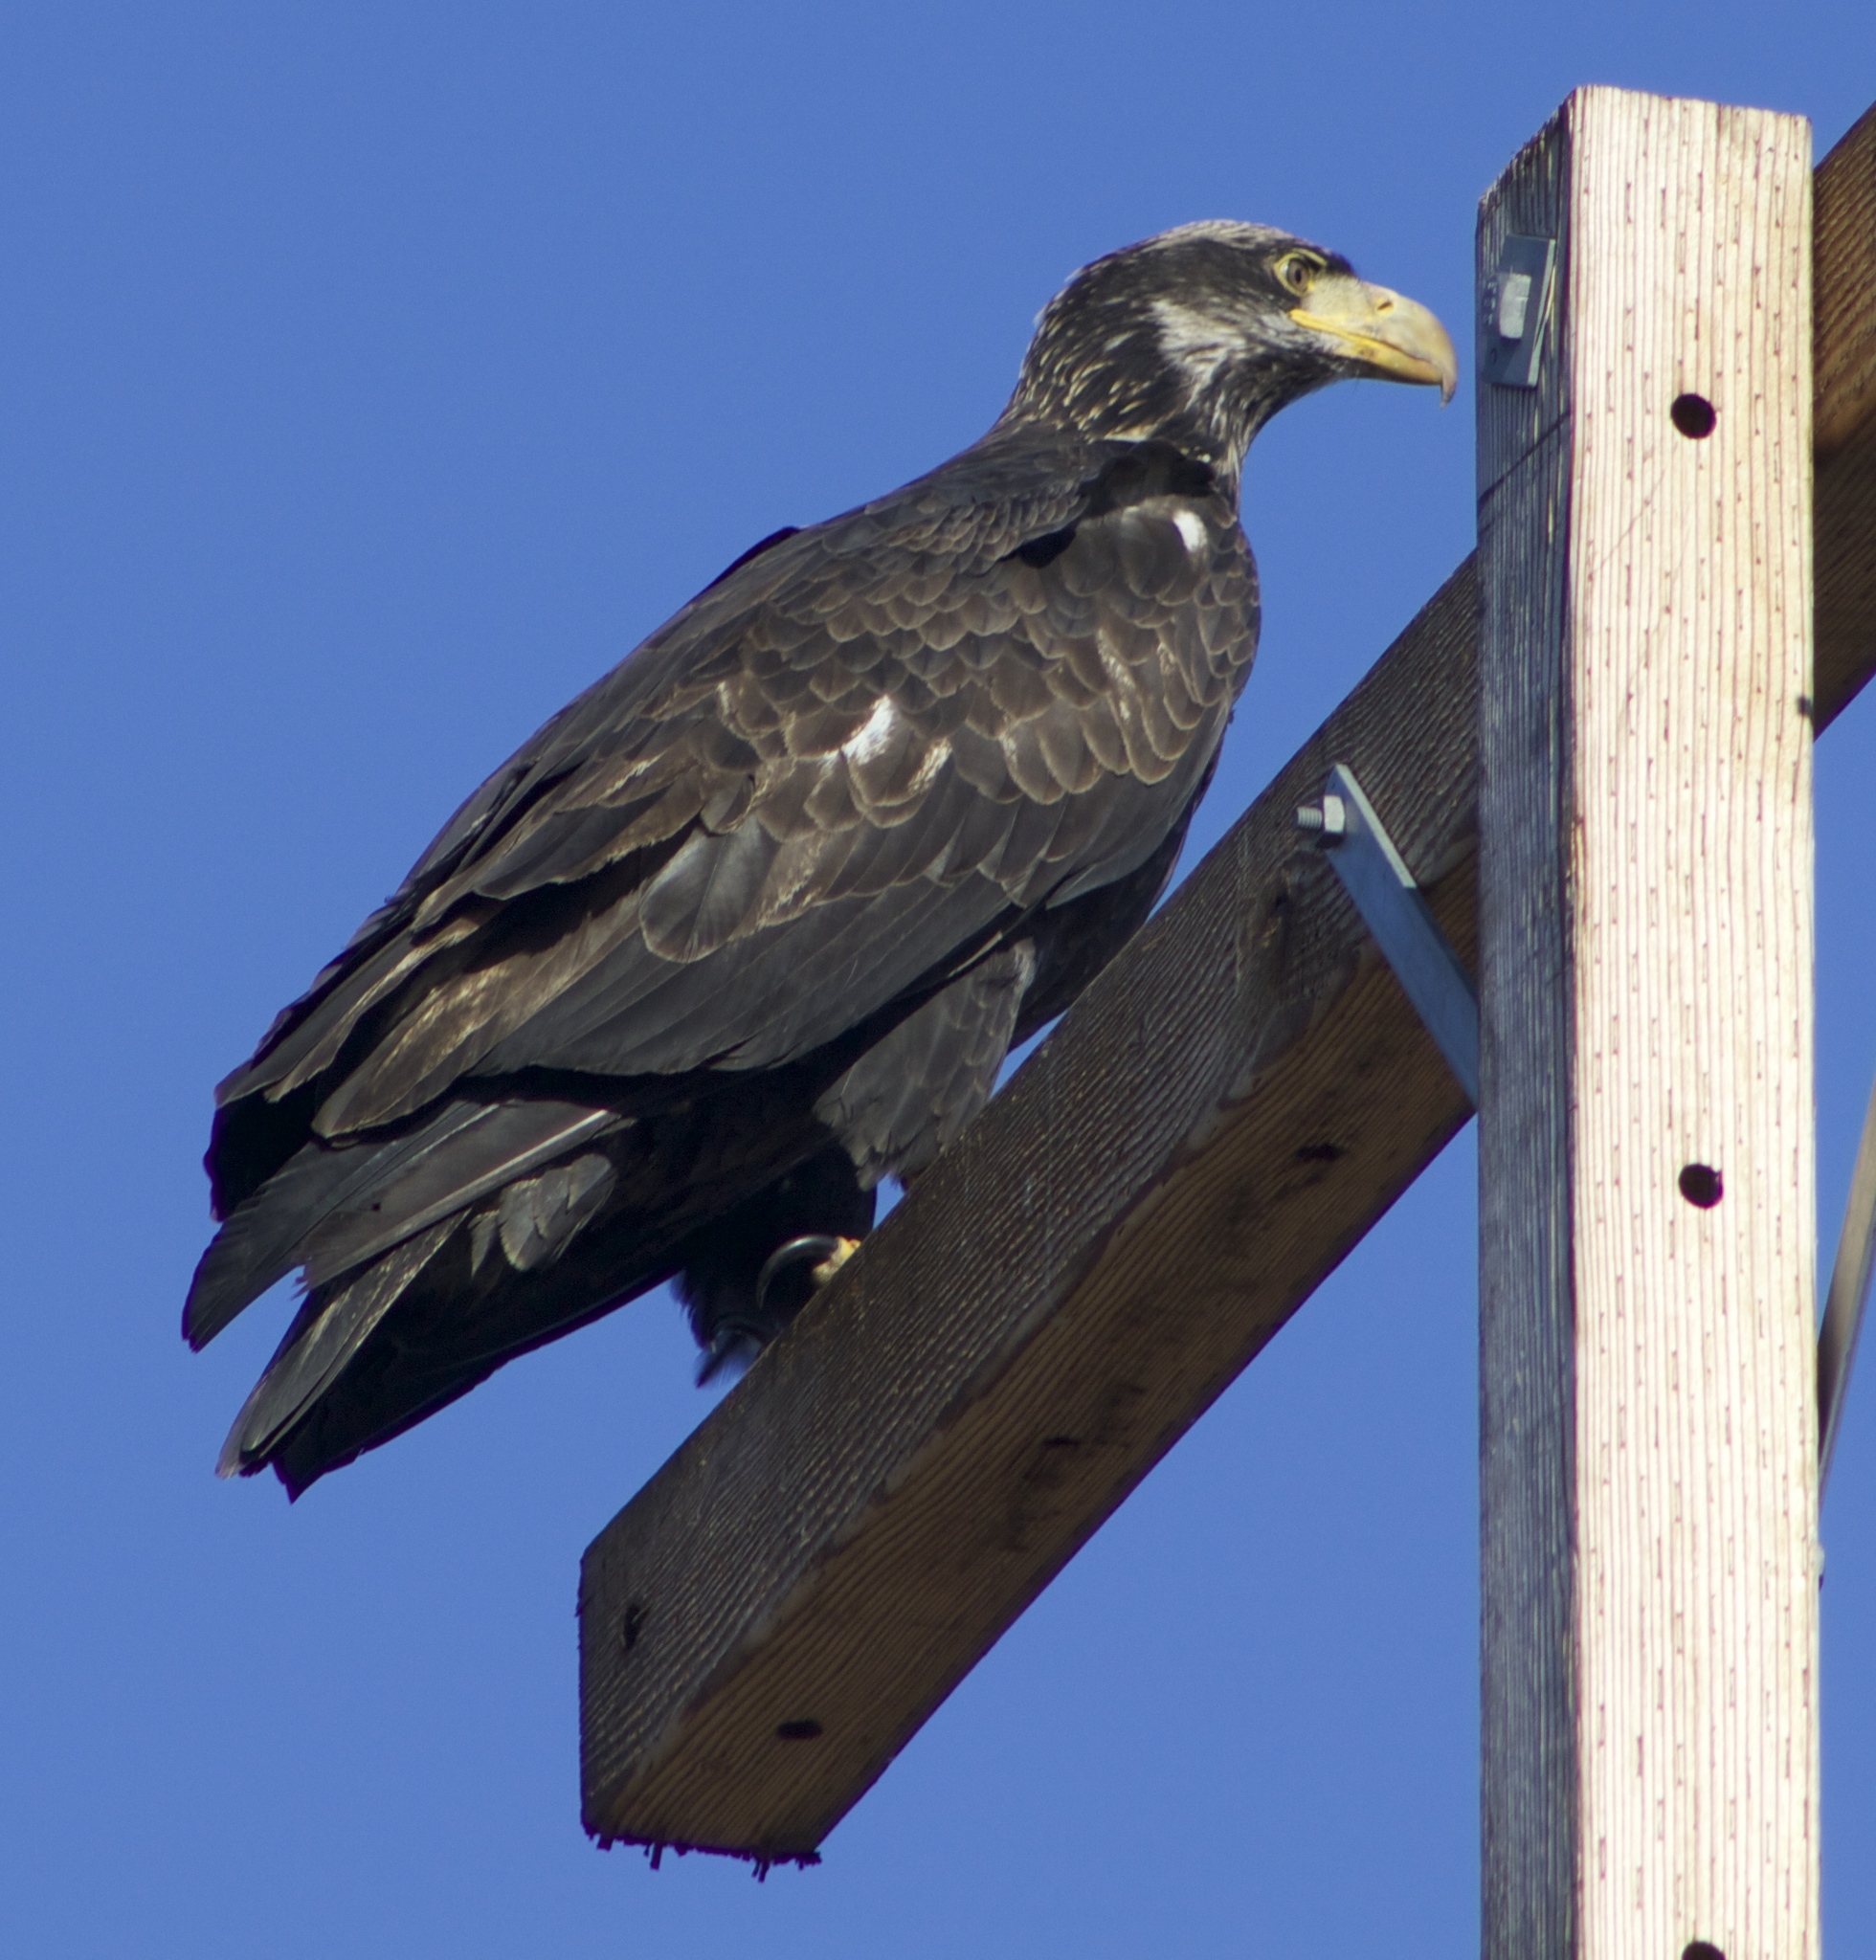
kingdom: Animalia
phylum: Chordata
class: Aves
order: Accipitriformes
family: Accipitridae
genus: Haliaeetus
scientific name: Haliaeetus leucocephalus
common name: Bald eagle
